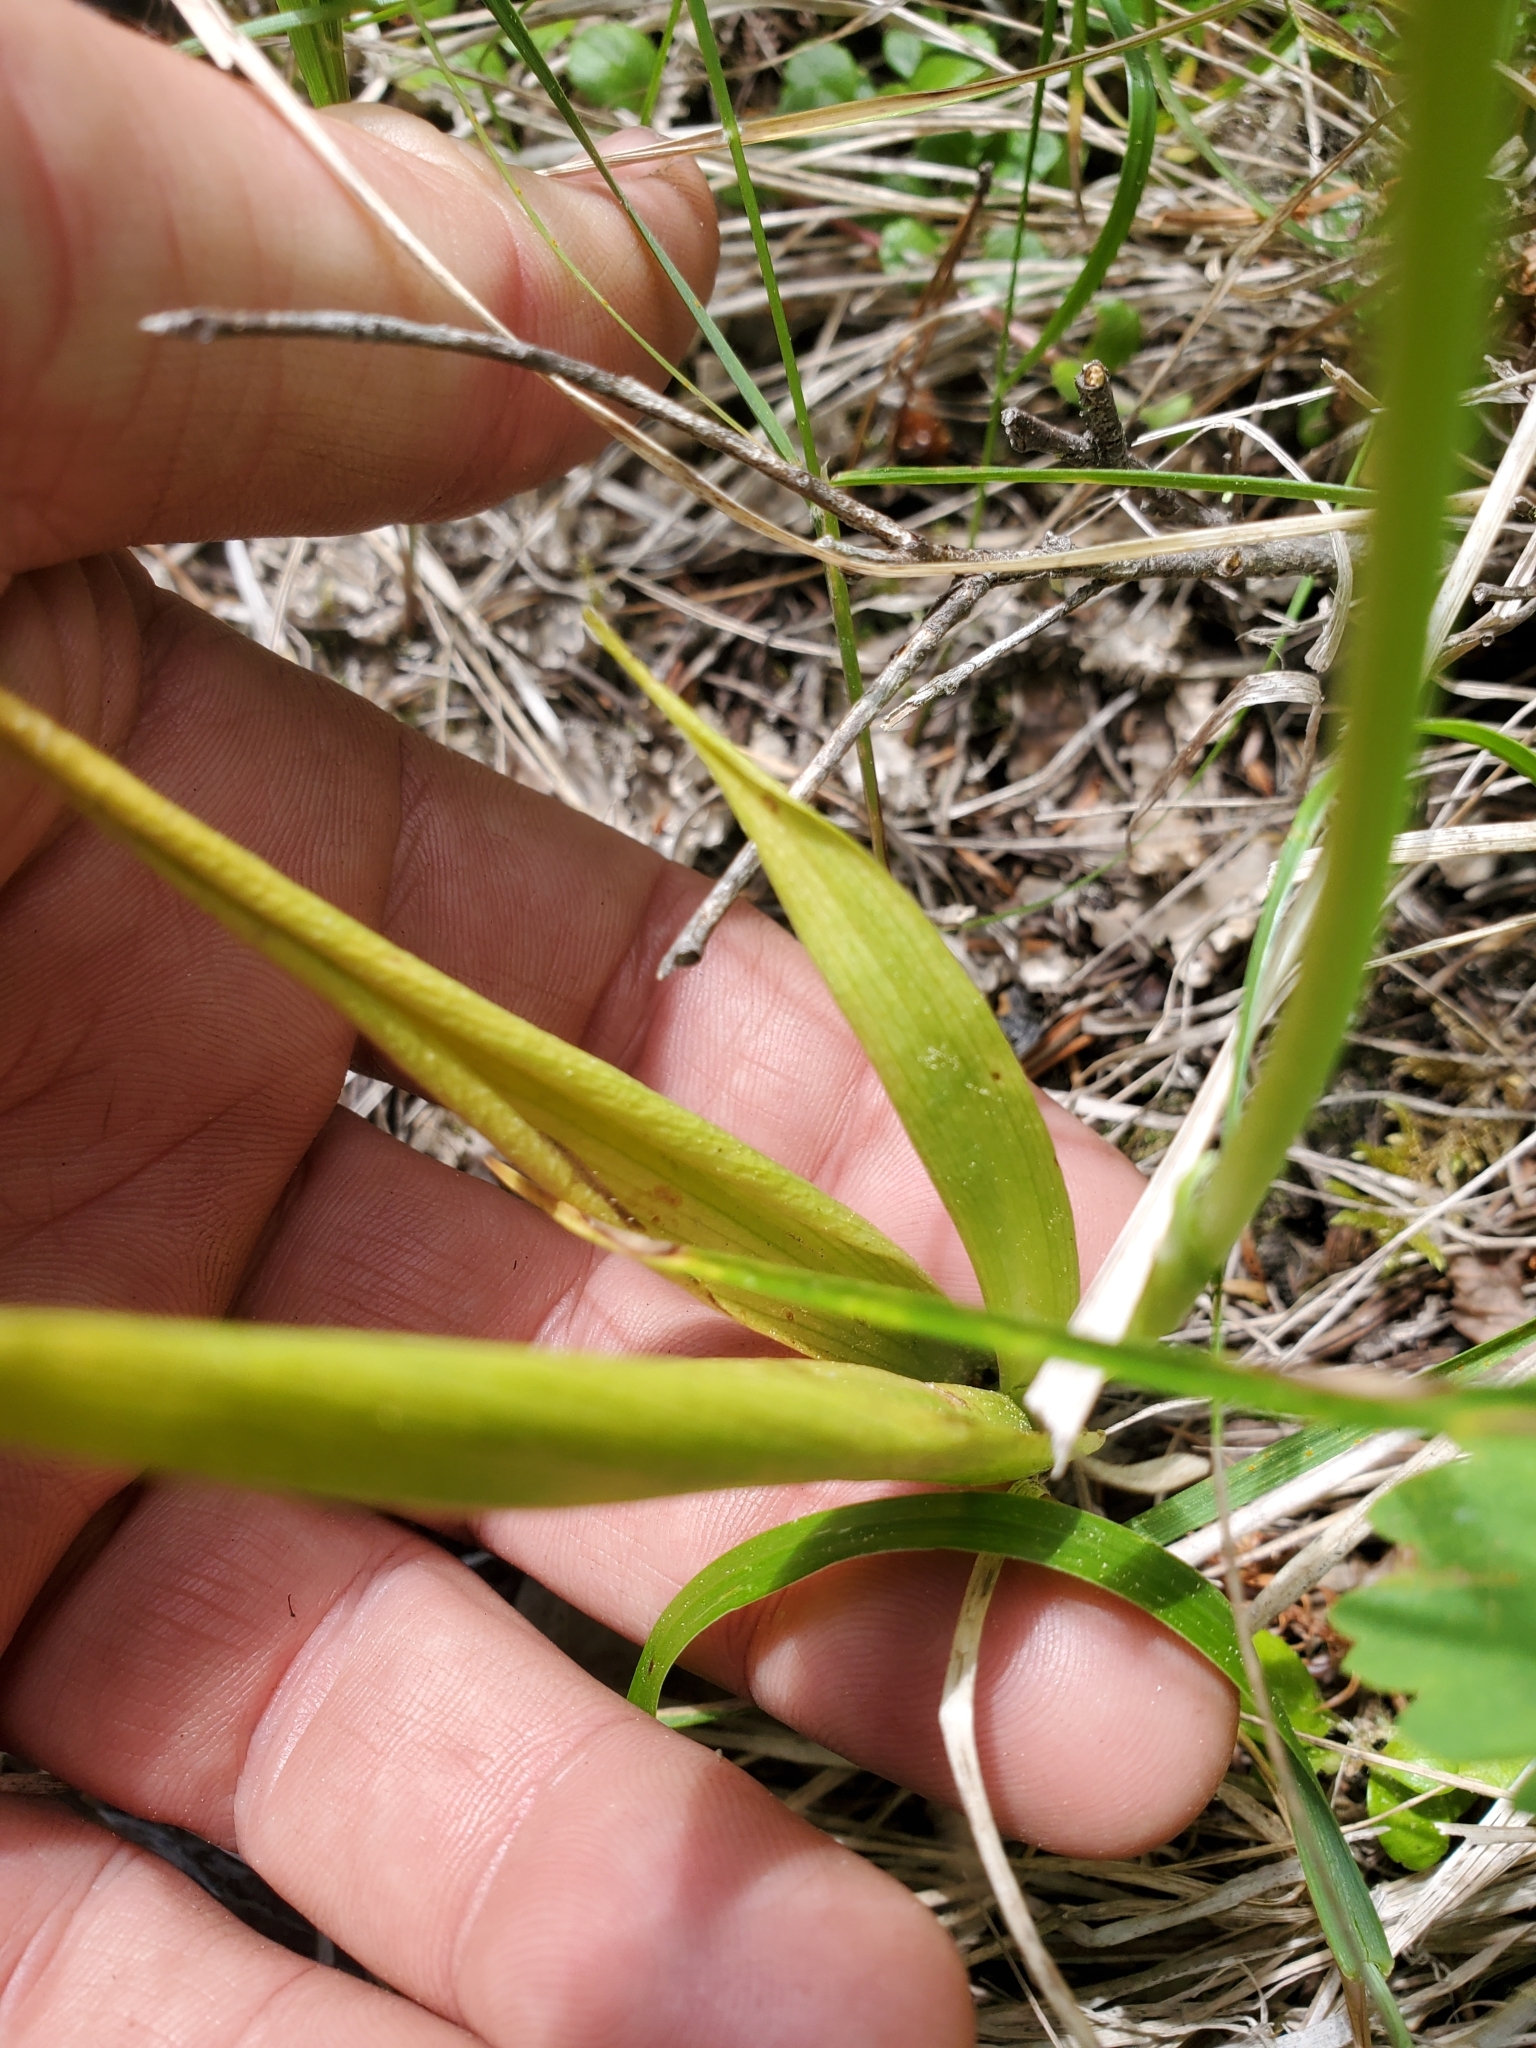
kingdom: Plantae
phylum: Tracheophyta
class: Liliopsida
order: Asparagales
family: Orchidaceae
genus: Platanthera
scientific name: Platanthera unalascensis
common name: Alaska bog orchid
